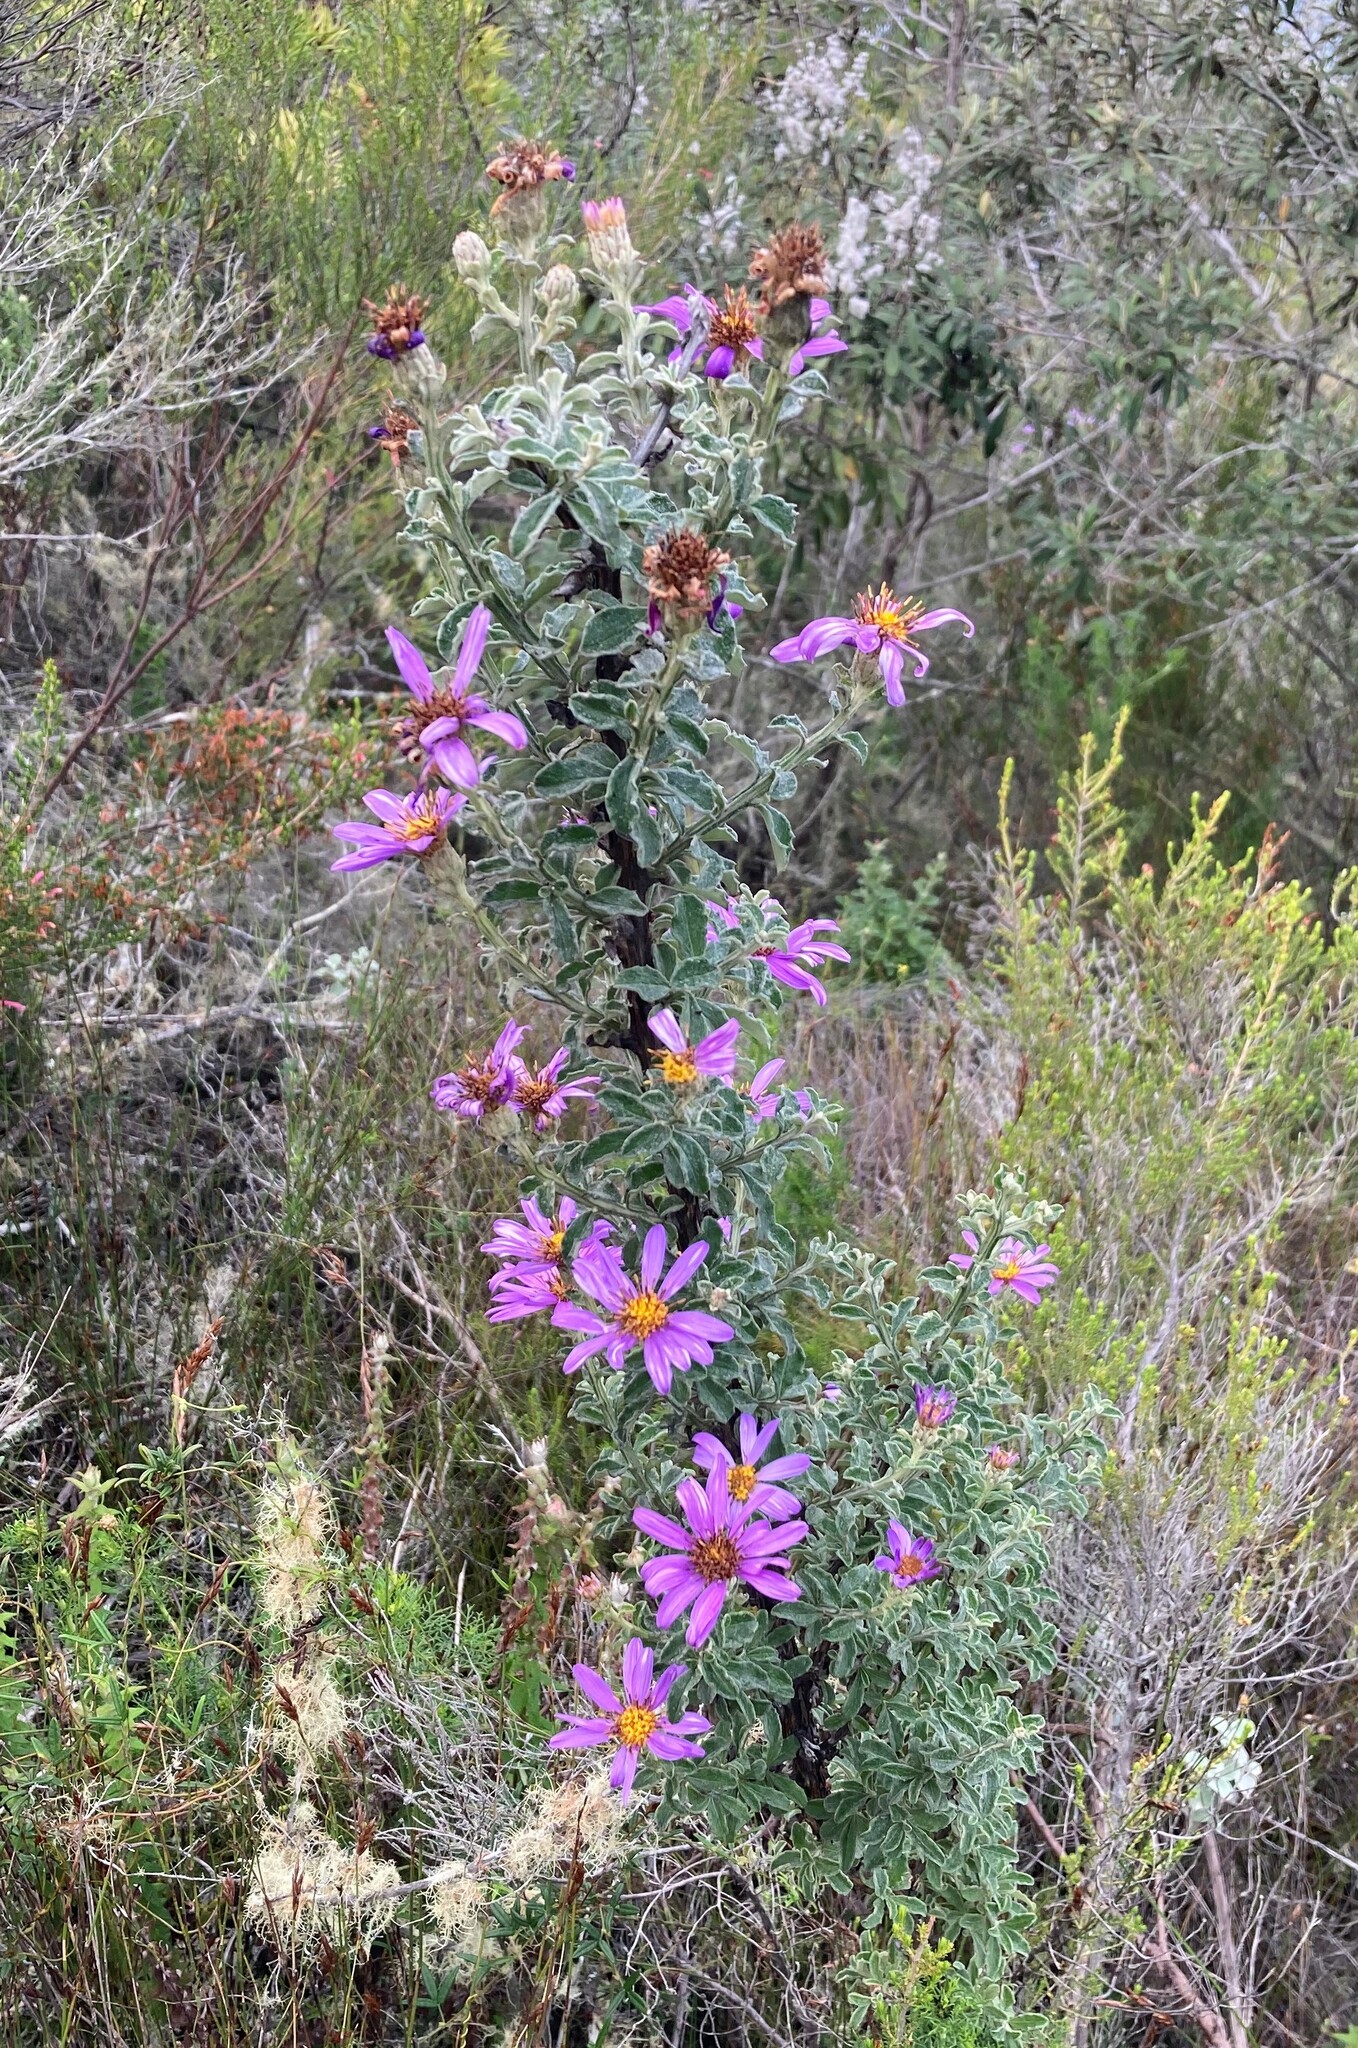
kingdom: Plantae
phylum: Tracheophyta
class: Magnoliopsida
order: Asterales
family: Asteraceae
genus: Printzia
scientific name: Printzia polifolia
